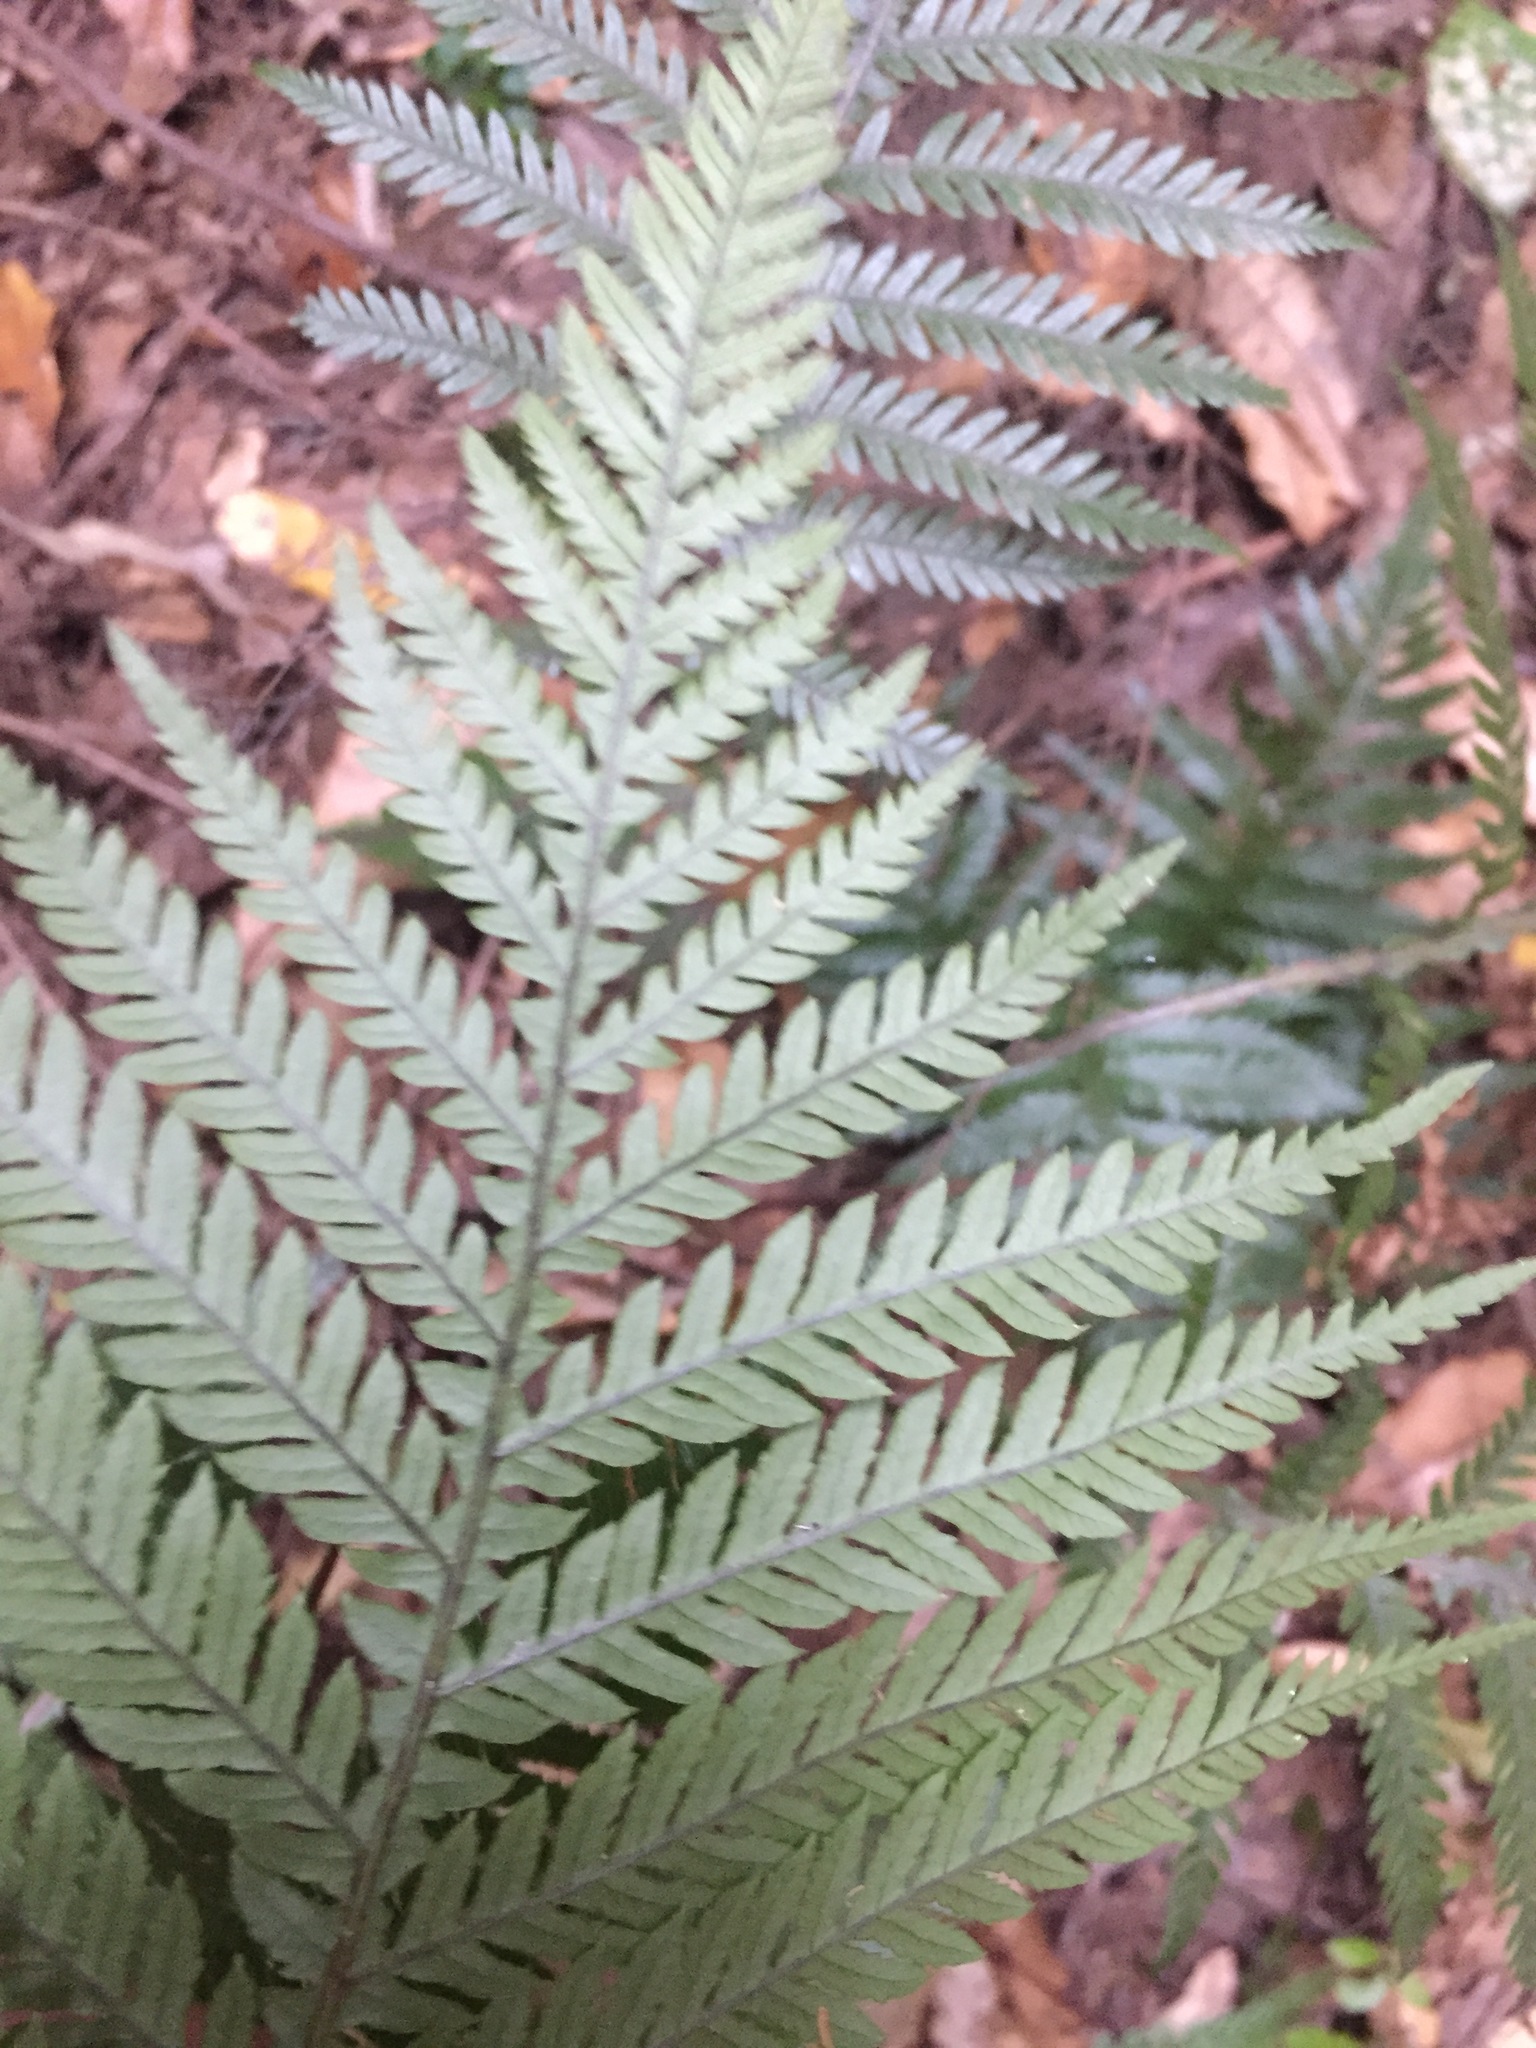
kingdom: Plantae
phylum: Tracheophyta
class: Polypodiopsida
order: Polypodiales
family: Blechnaceae
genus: Diploblechnum
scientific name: Diploblechnum fraseri
